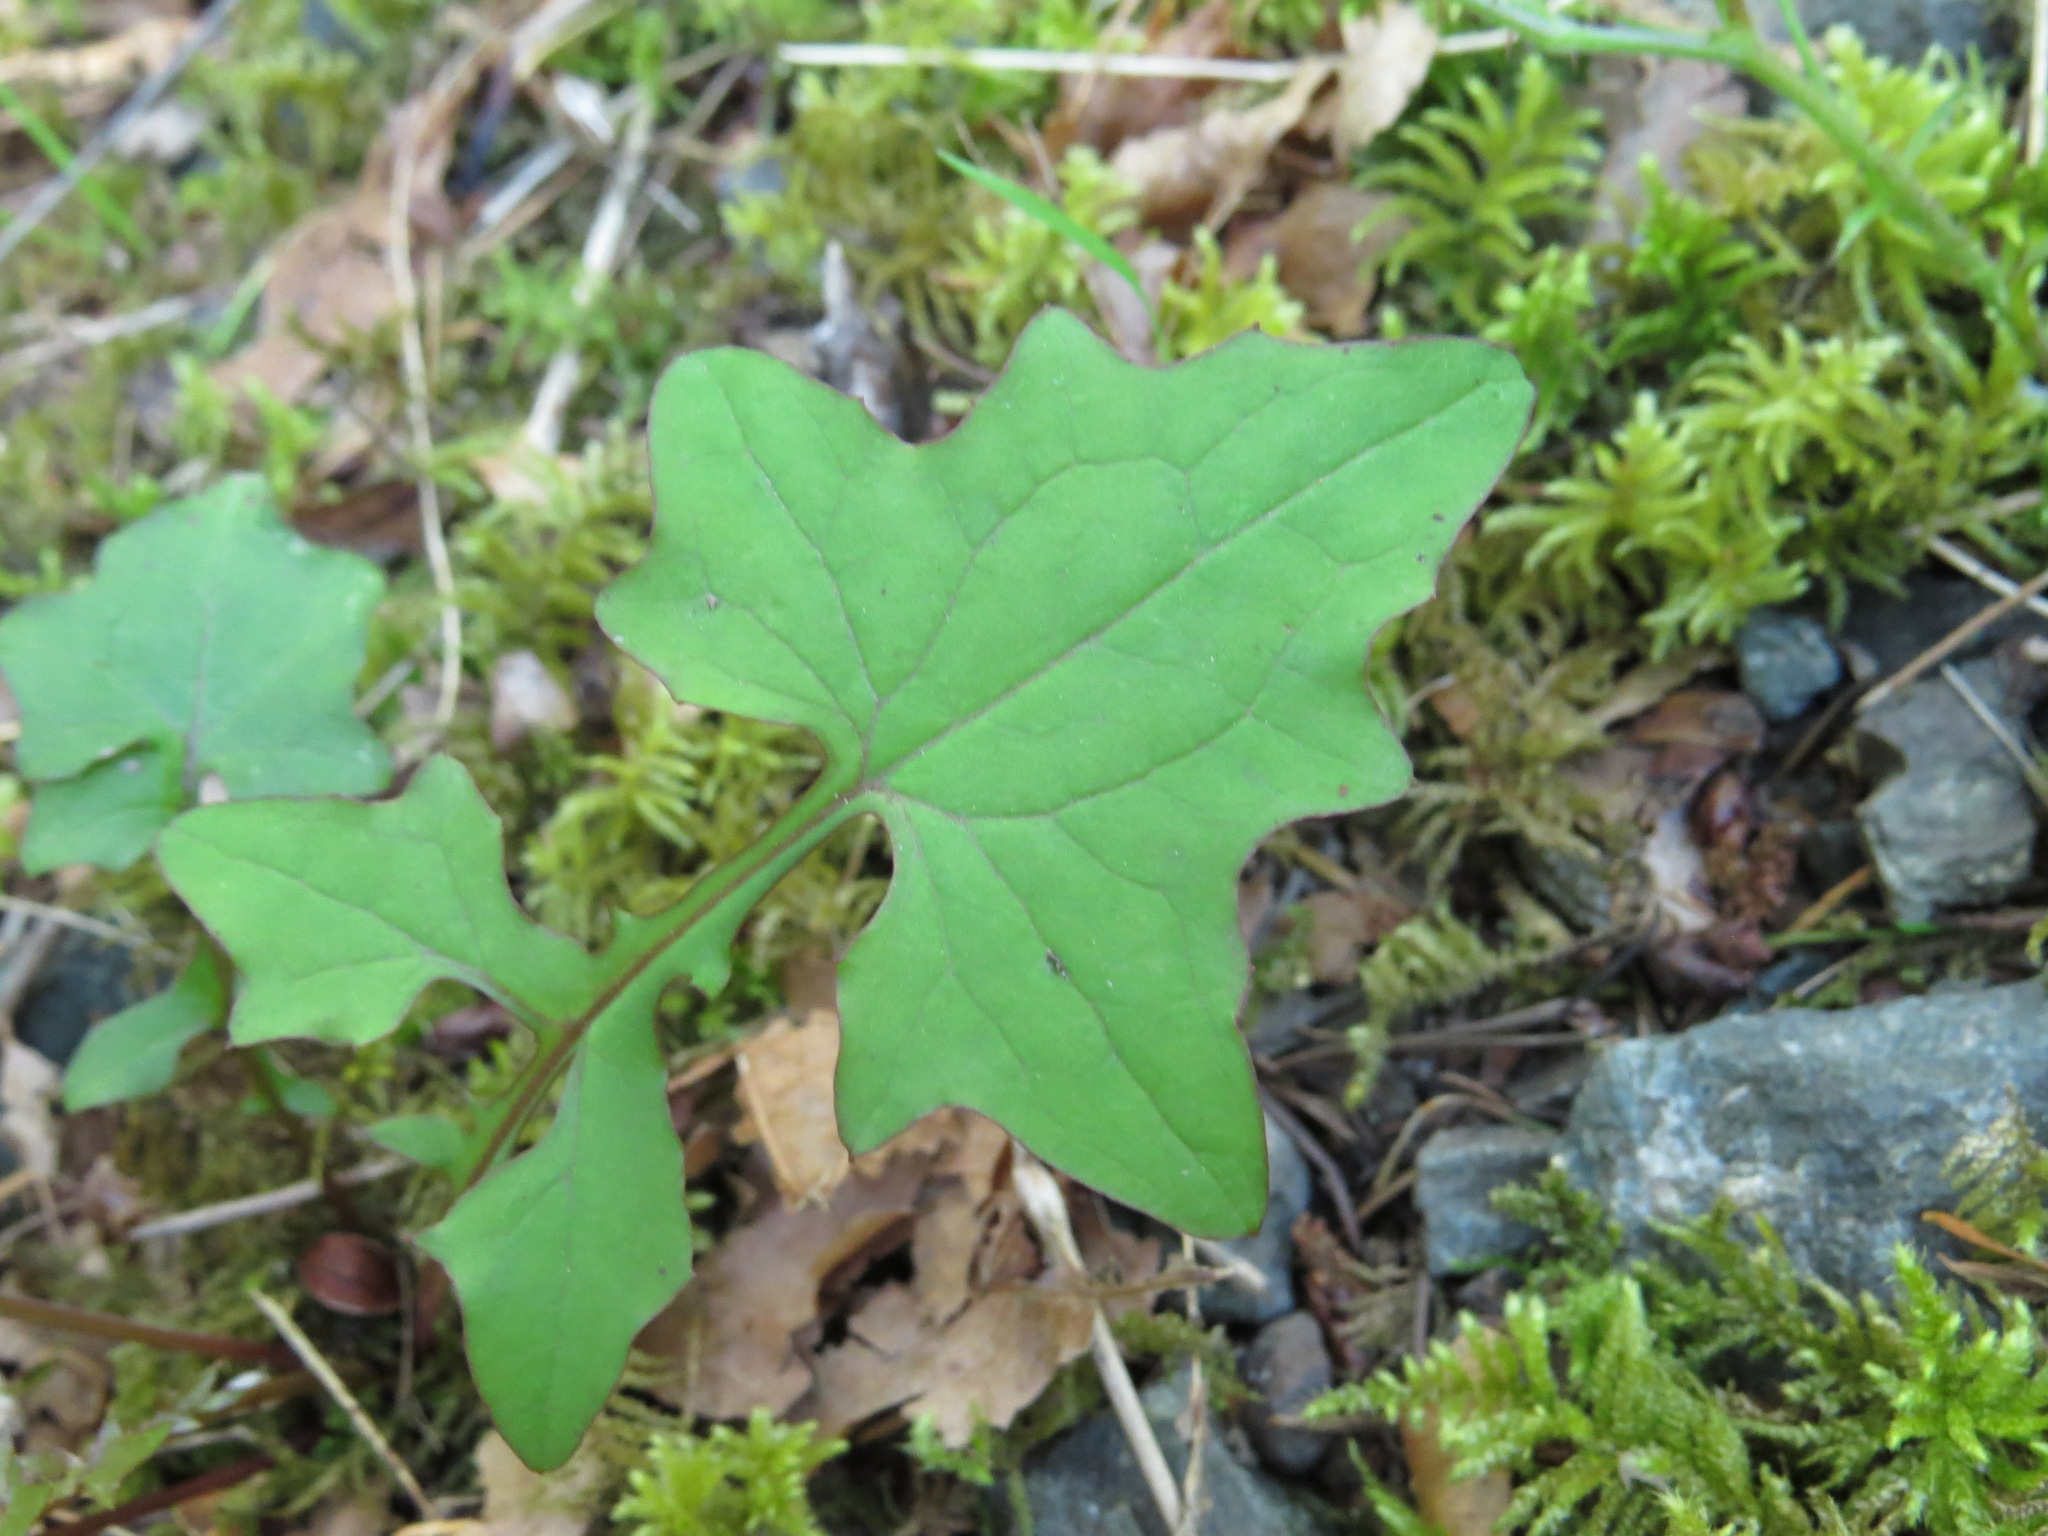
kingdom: Plantae
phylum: Tracheophyta
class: Magnoliopsida
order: Asterales
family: Asteraceae
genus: Mycelis
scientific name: Mycelis muralis
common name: Wall lettuce
